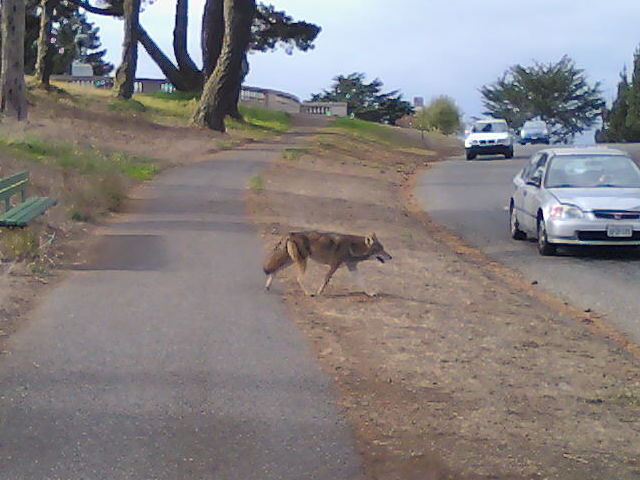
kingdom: Animalia
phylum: Chordata
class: Mammalia
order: Carnivora
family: Canidae
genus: Canis
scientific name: Canis latrans
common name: Coyote
